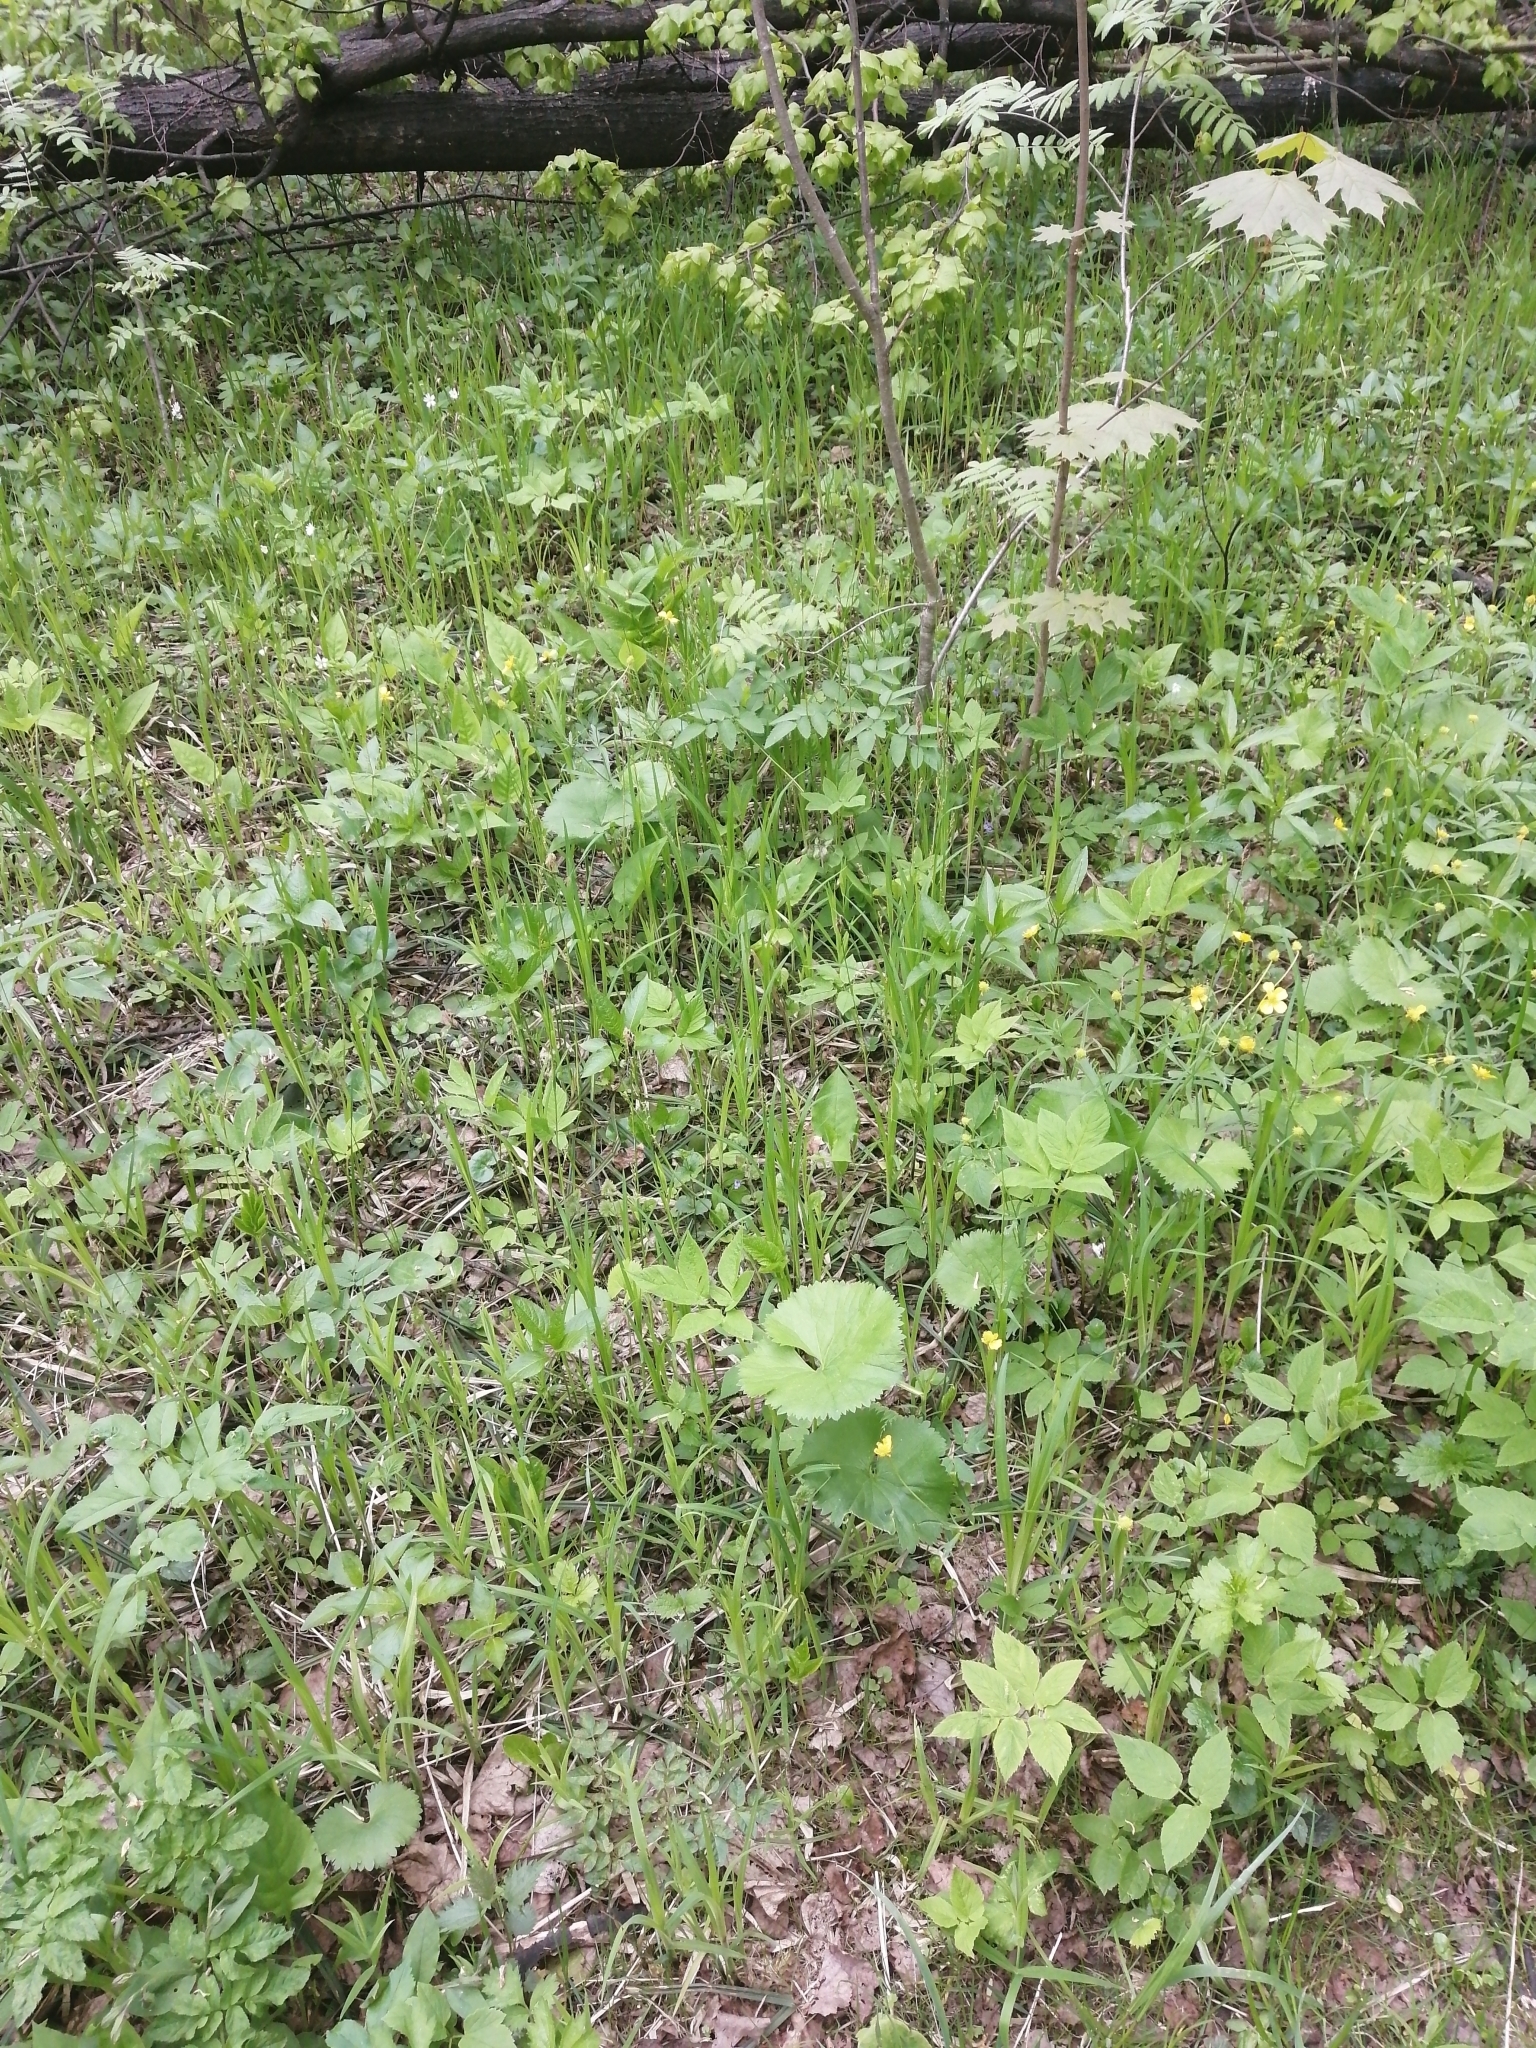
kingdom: Plantae
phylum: Tracheophyta
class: Magnoliopsida
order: Ranunculales
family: Ranunculaceae
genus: Ranunculus
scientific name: Ranunculus cassubicus
